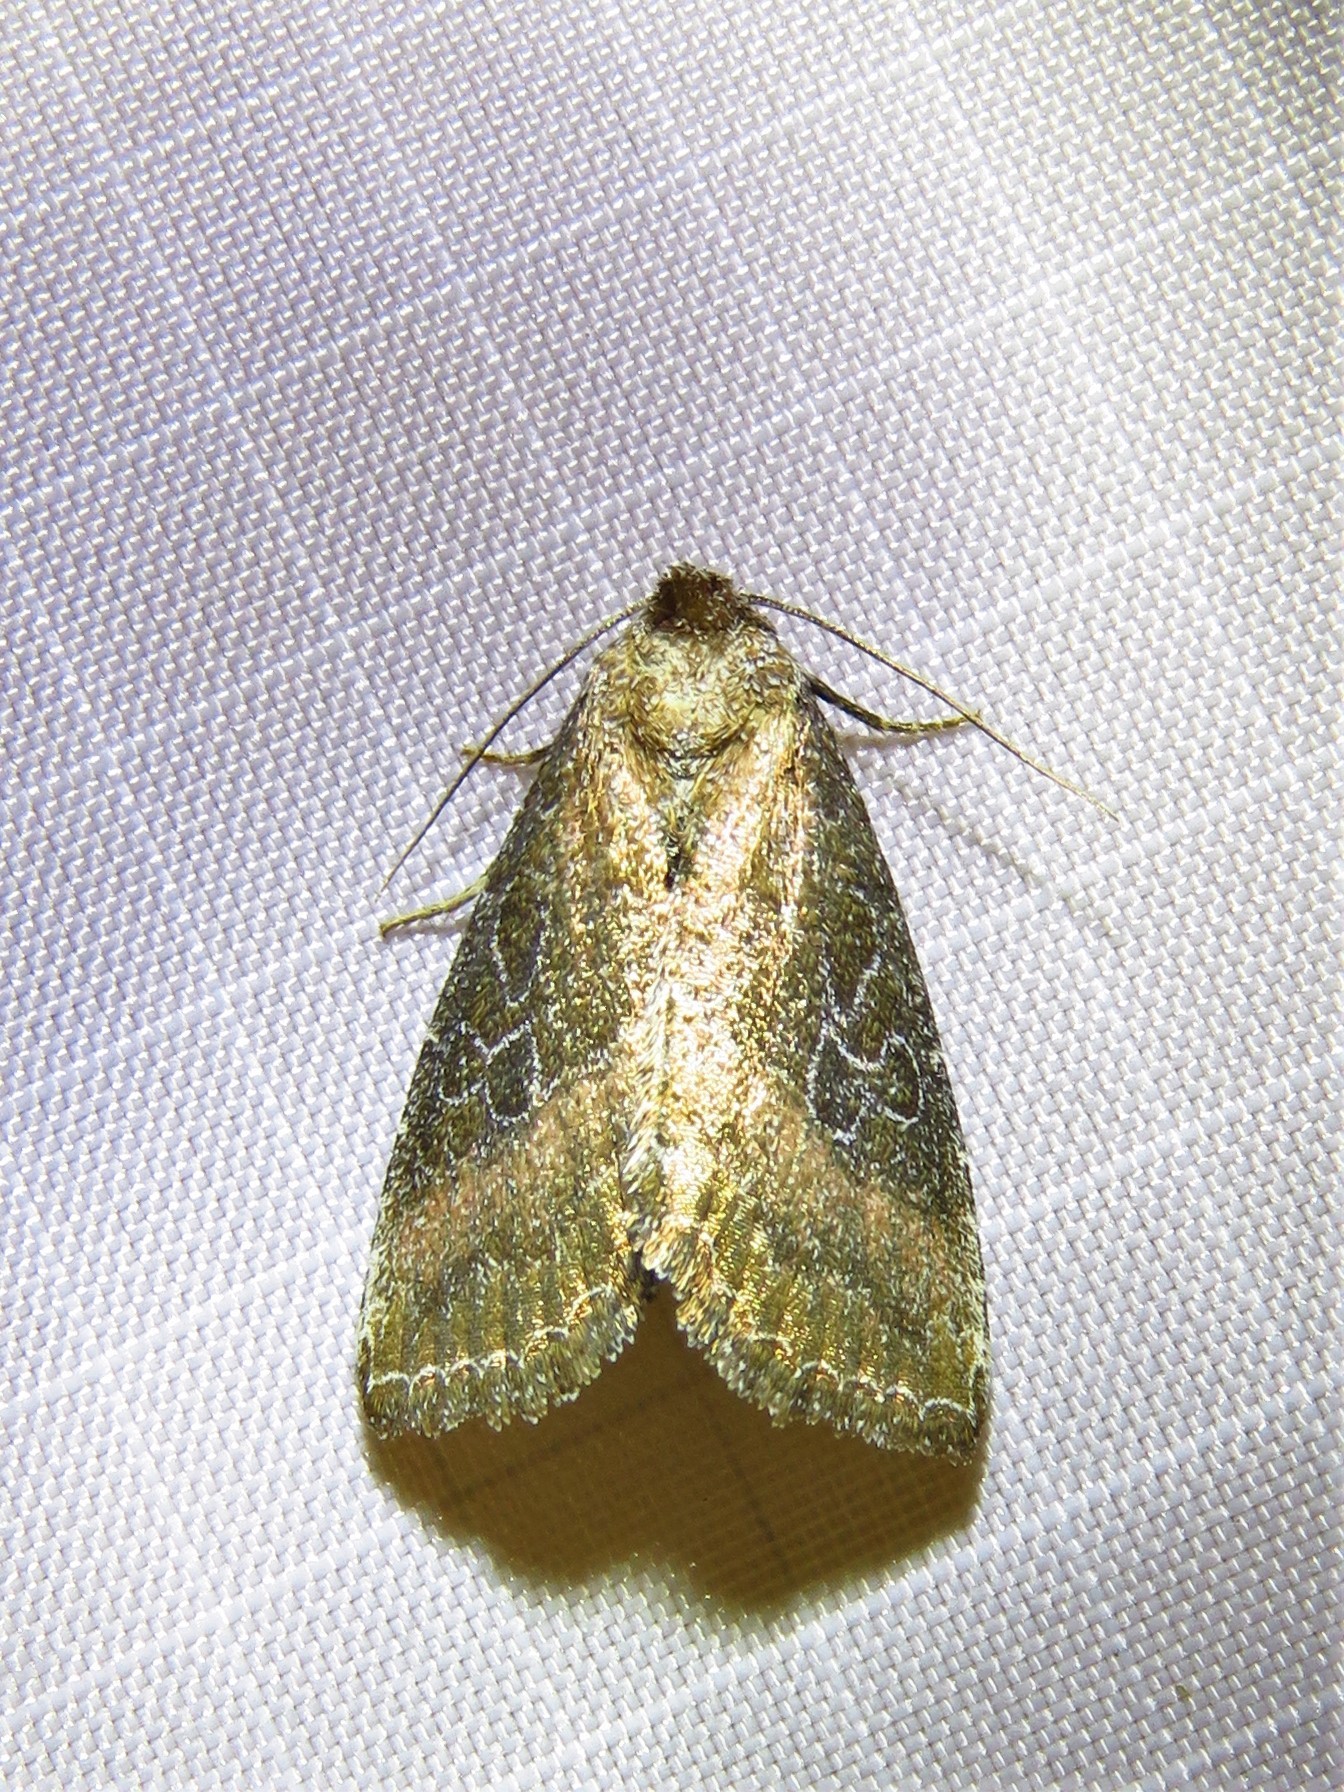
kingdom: Animalia
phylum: Arthropoda
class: Insecta
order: Lepidoptera
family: Noctuidae
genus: Ogdoconta
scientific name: Ogdoconta cinereola
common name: Common pinkband
